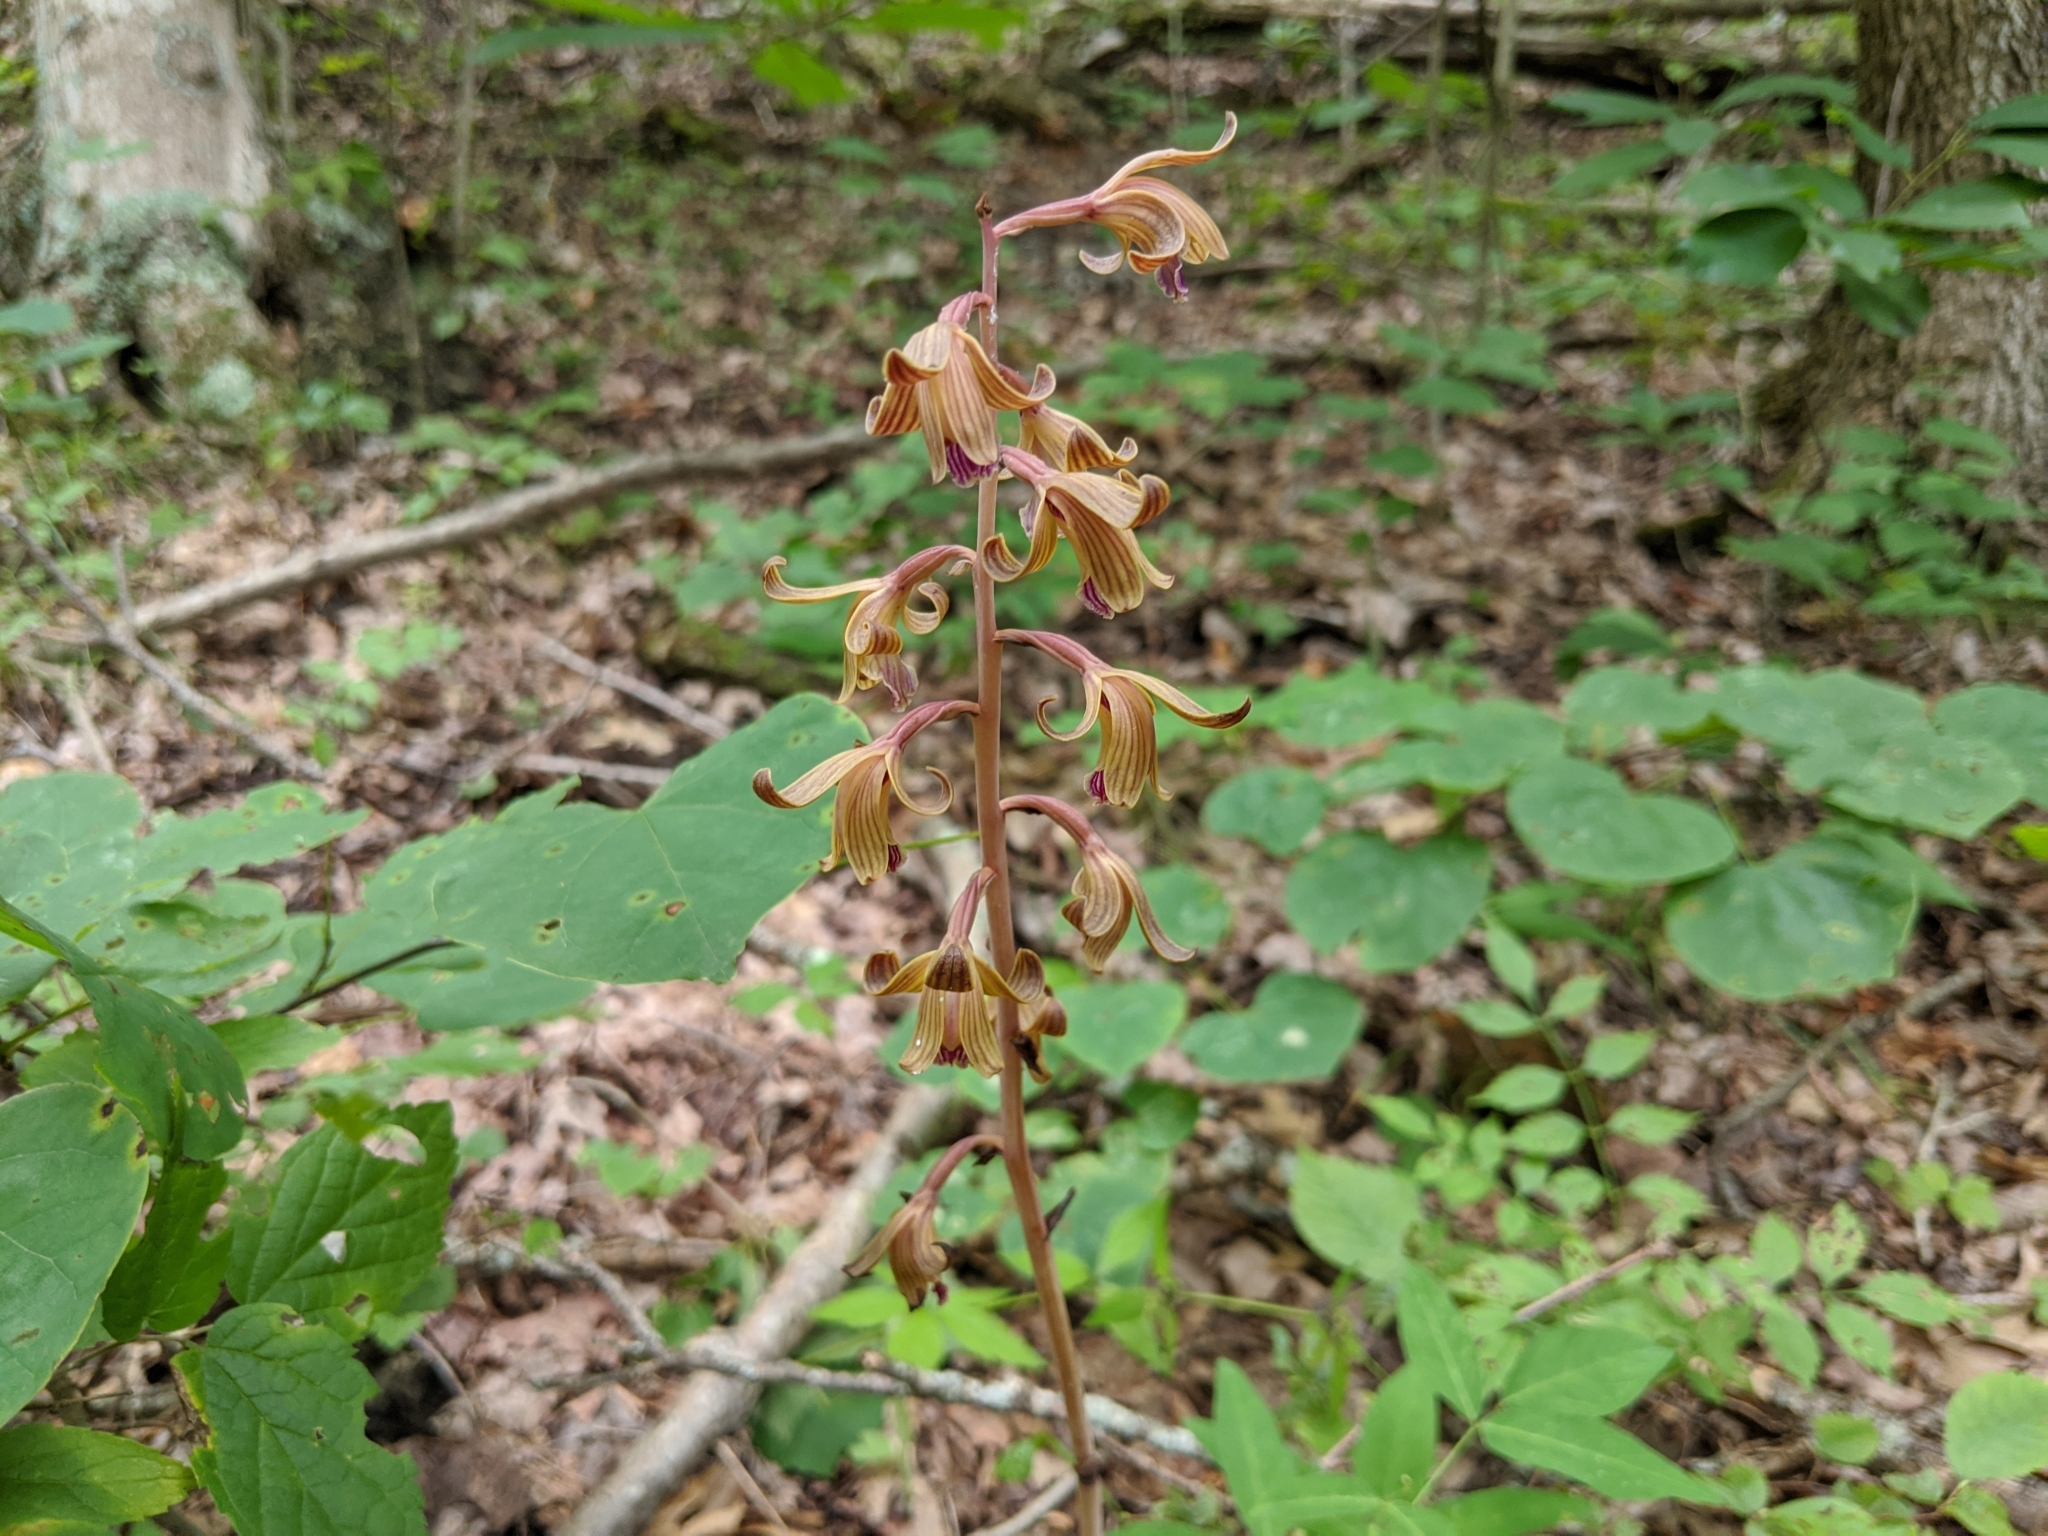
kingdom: Plantae
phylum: Tracheophyta
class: Liliopsida
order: Asparagales
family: Orchidaceae
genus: Bletia
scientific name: Bletia spicata
